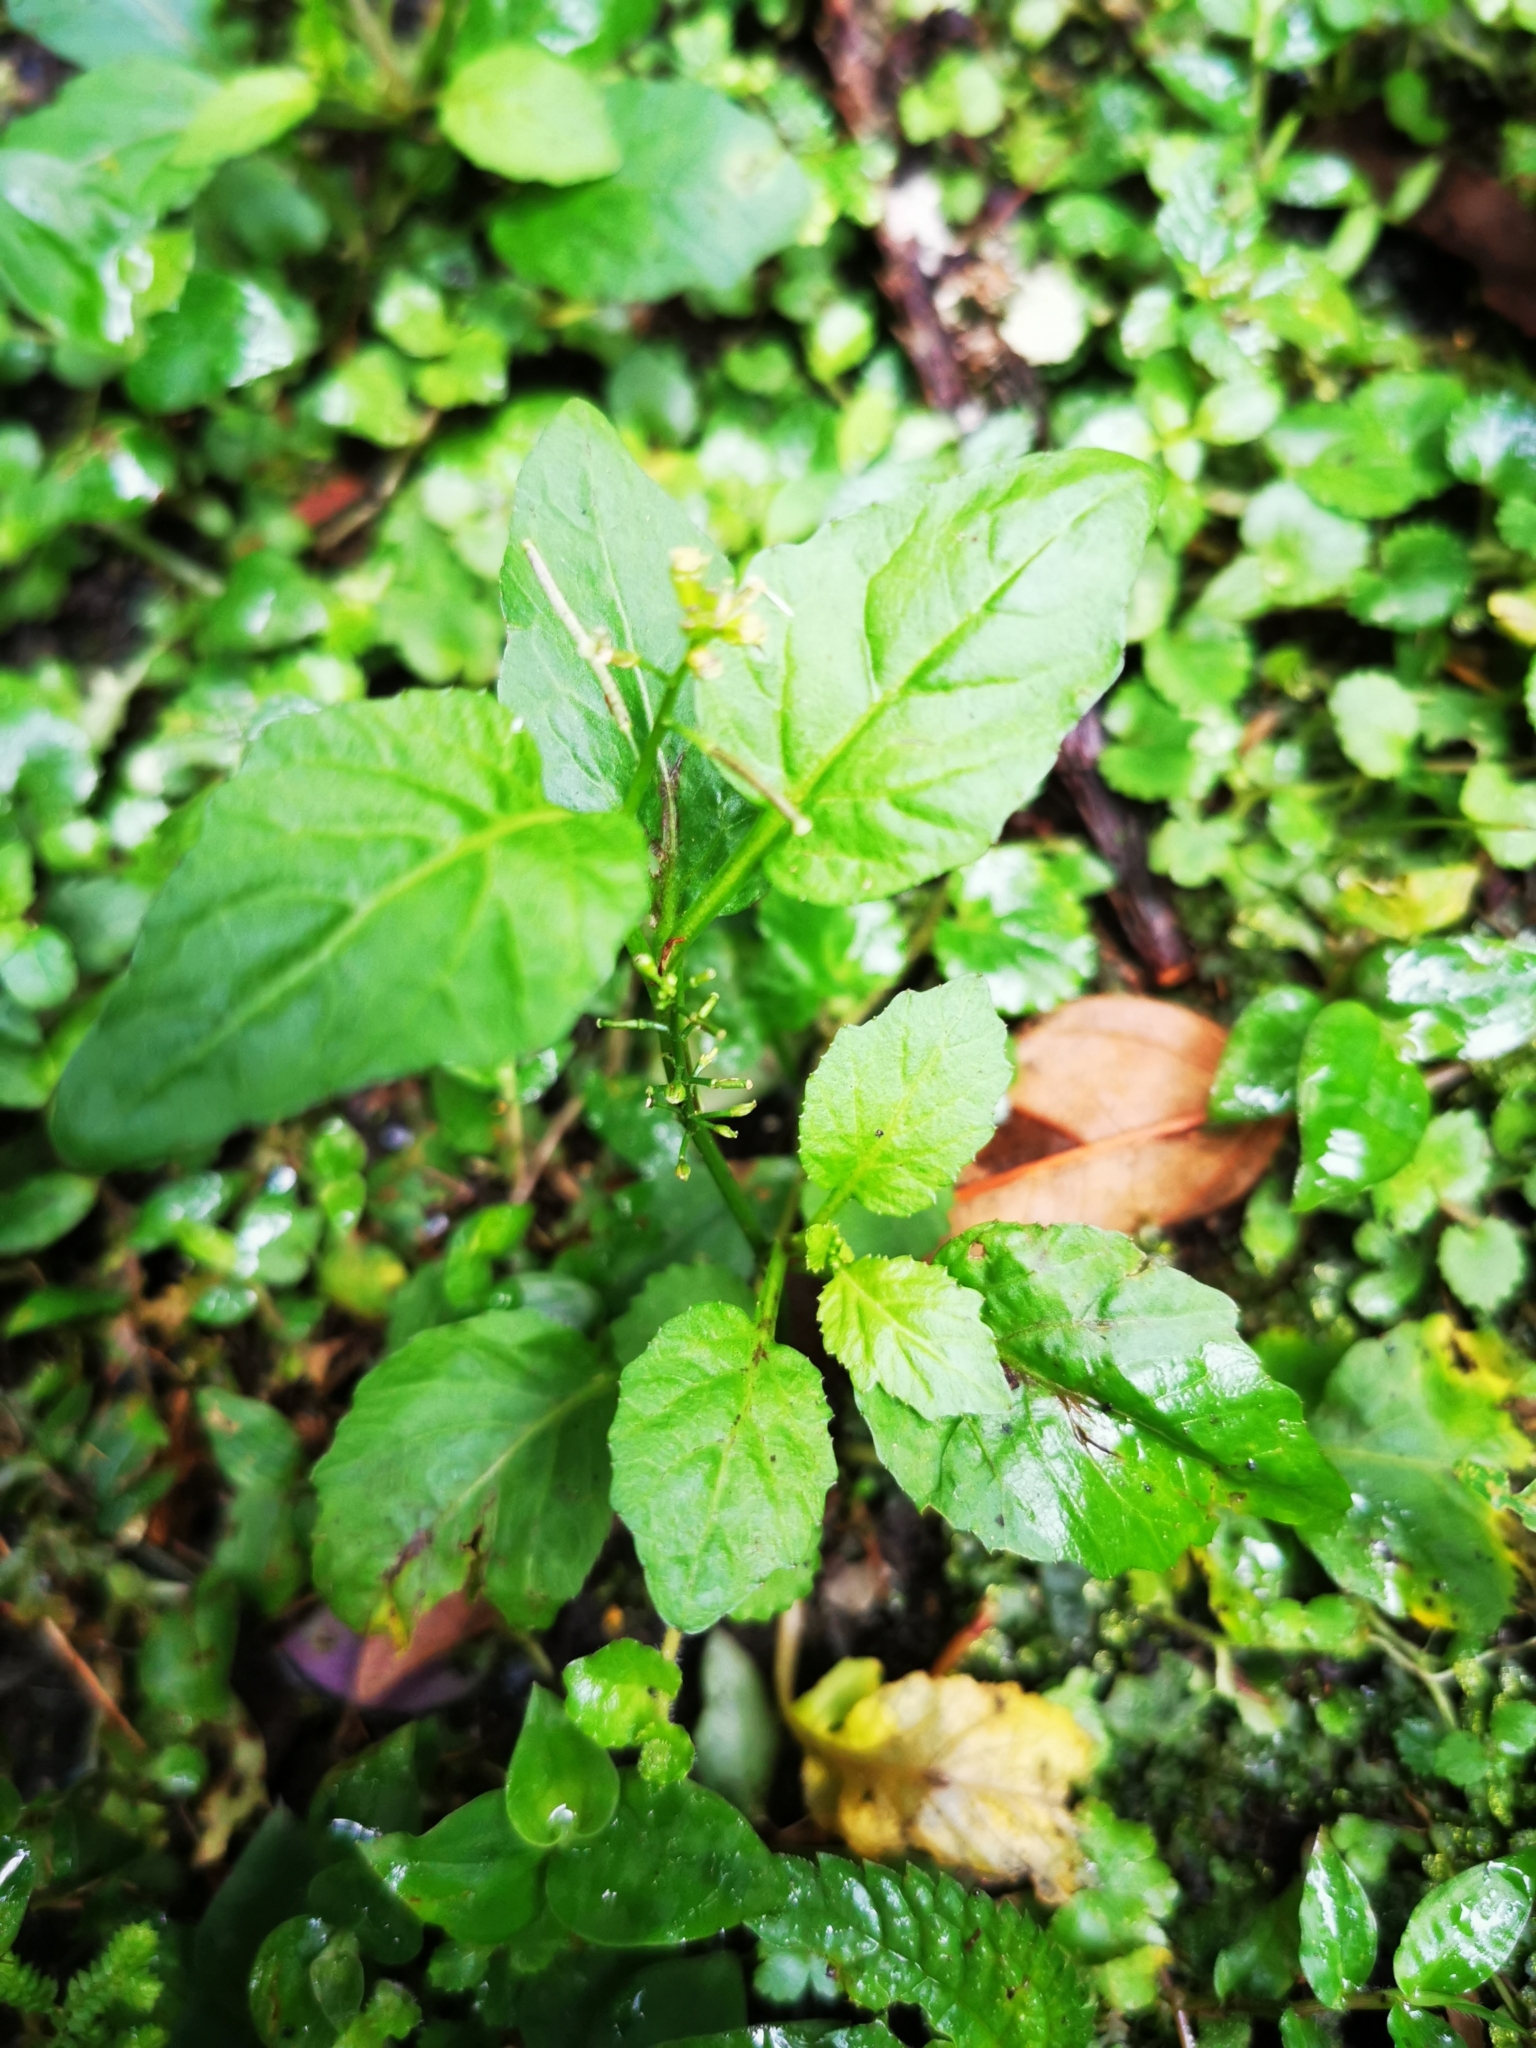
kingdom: Plantae
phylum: Tracheophyta
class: Magnoliopsida
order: Brassicales
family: Brassicaceae
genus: Rorippa
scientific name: Rorippa dubia
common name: Variableleaf yellowcress
